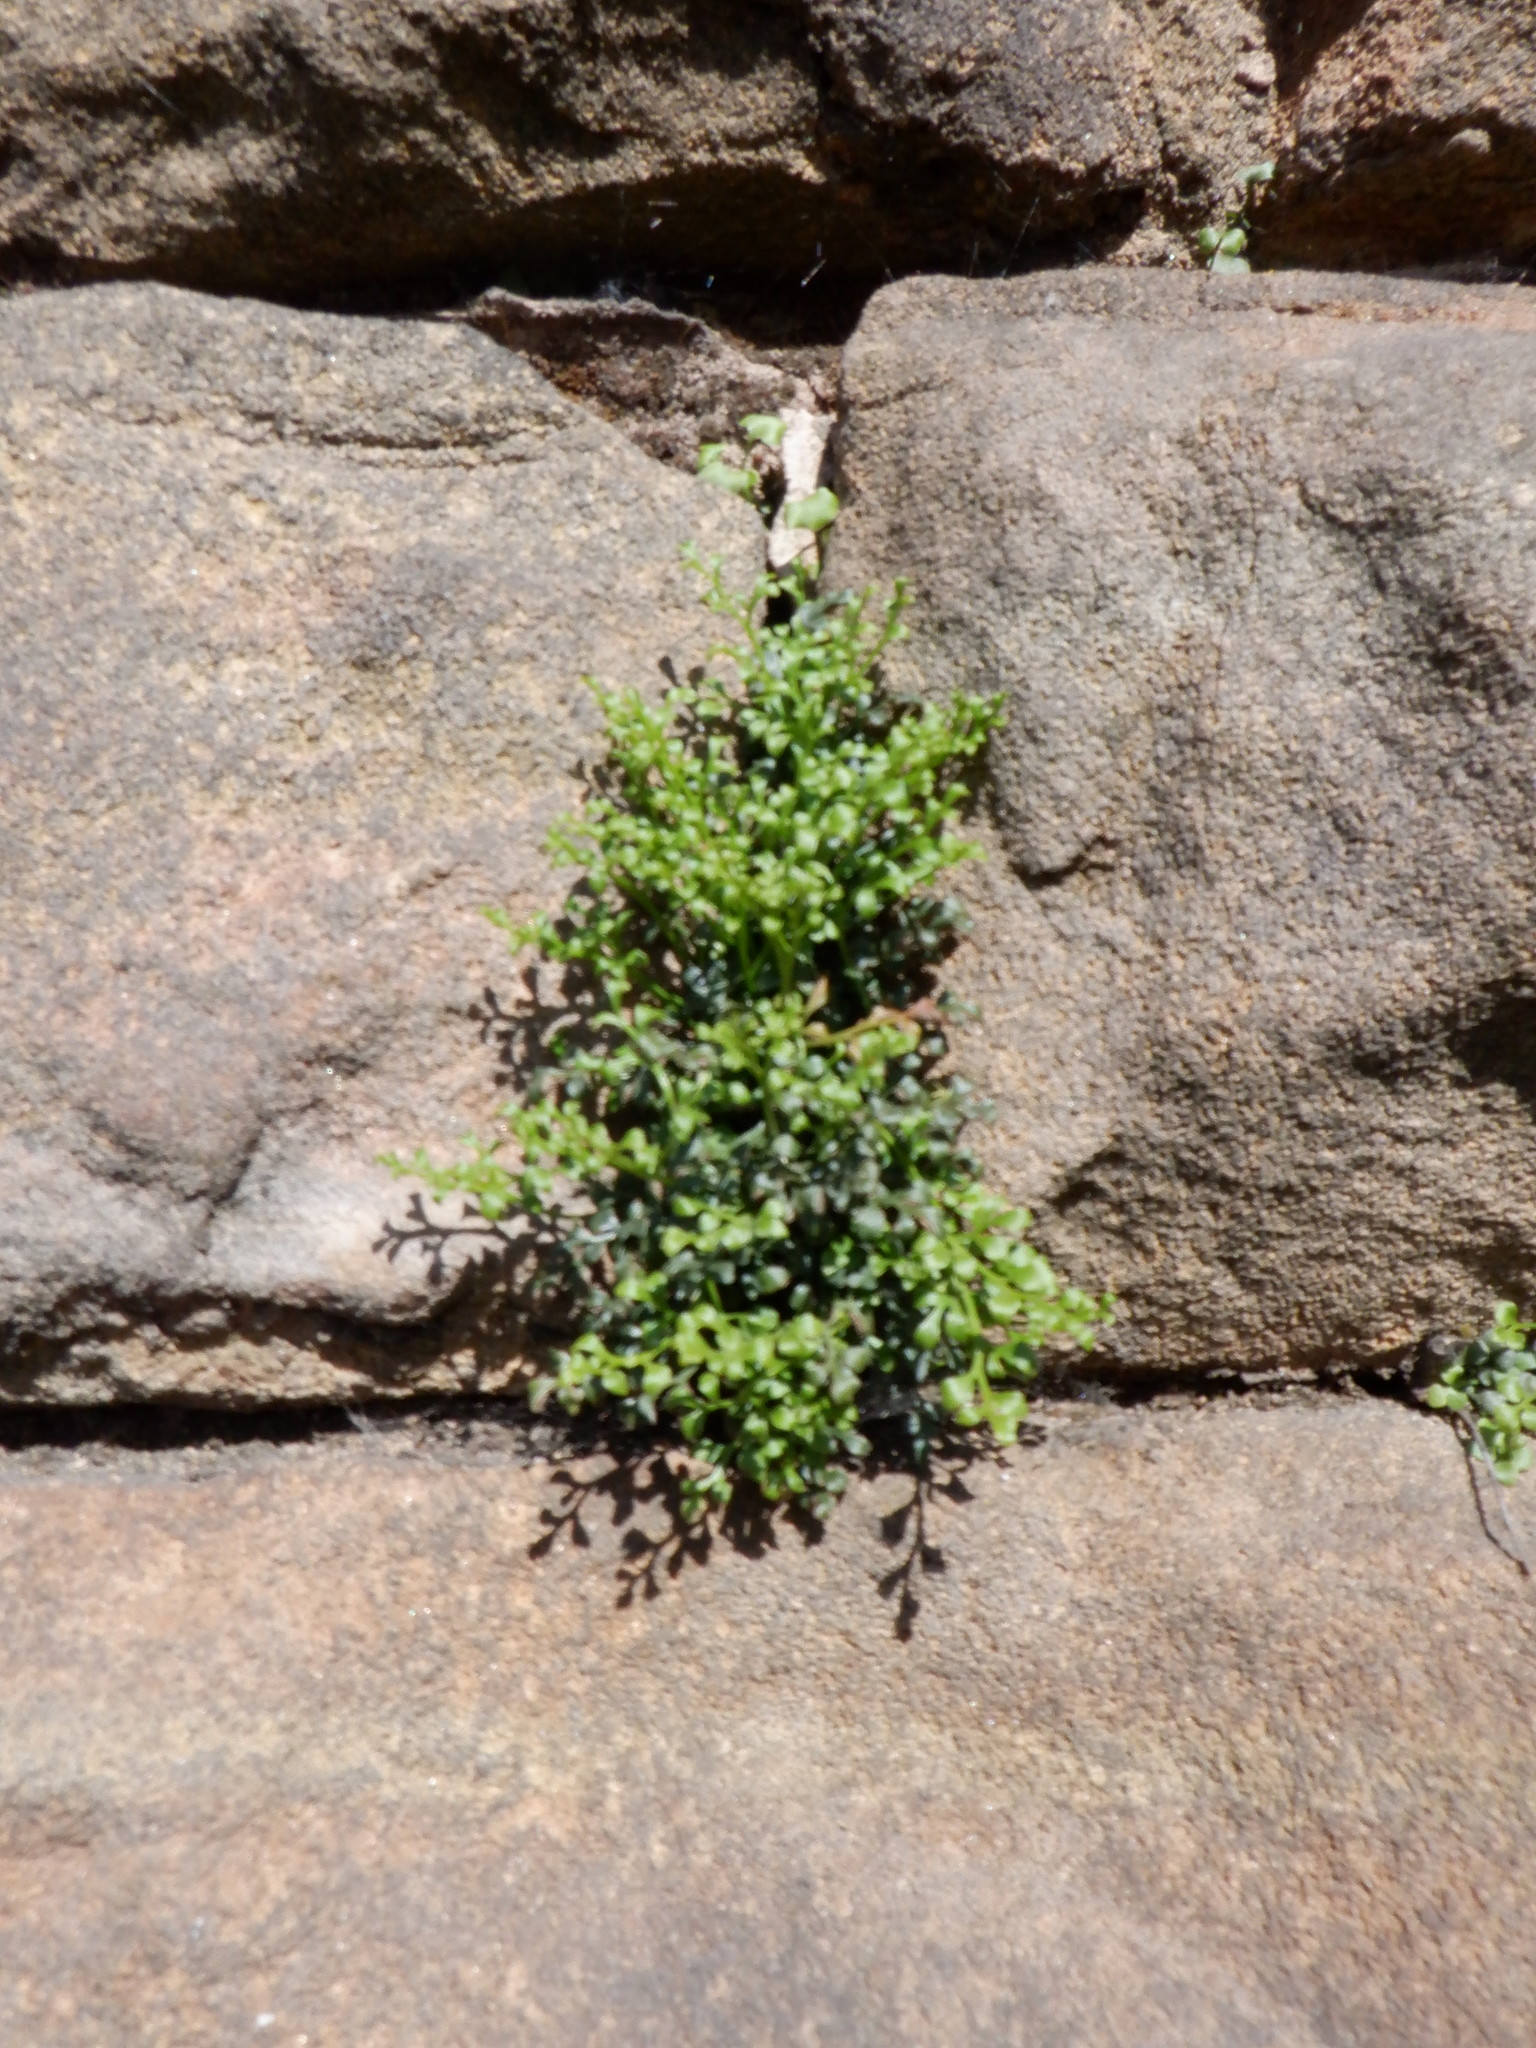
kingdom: Plantae
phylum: Tracheophyta
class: Polypodiopsida
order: Polypodiales
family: Aspleniaceae
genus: Asplenium
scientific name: Asplenium ruta-muraria
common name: Wall-rue
